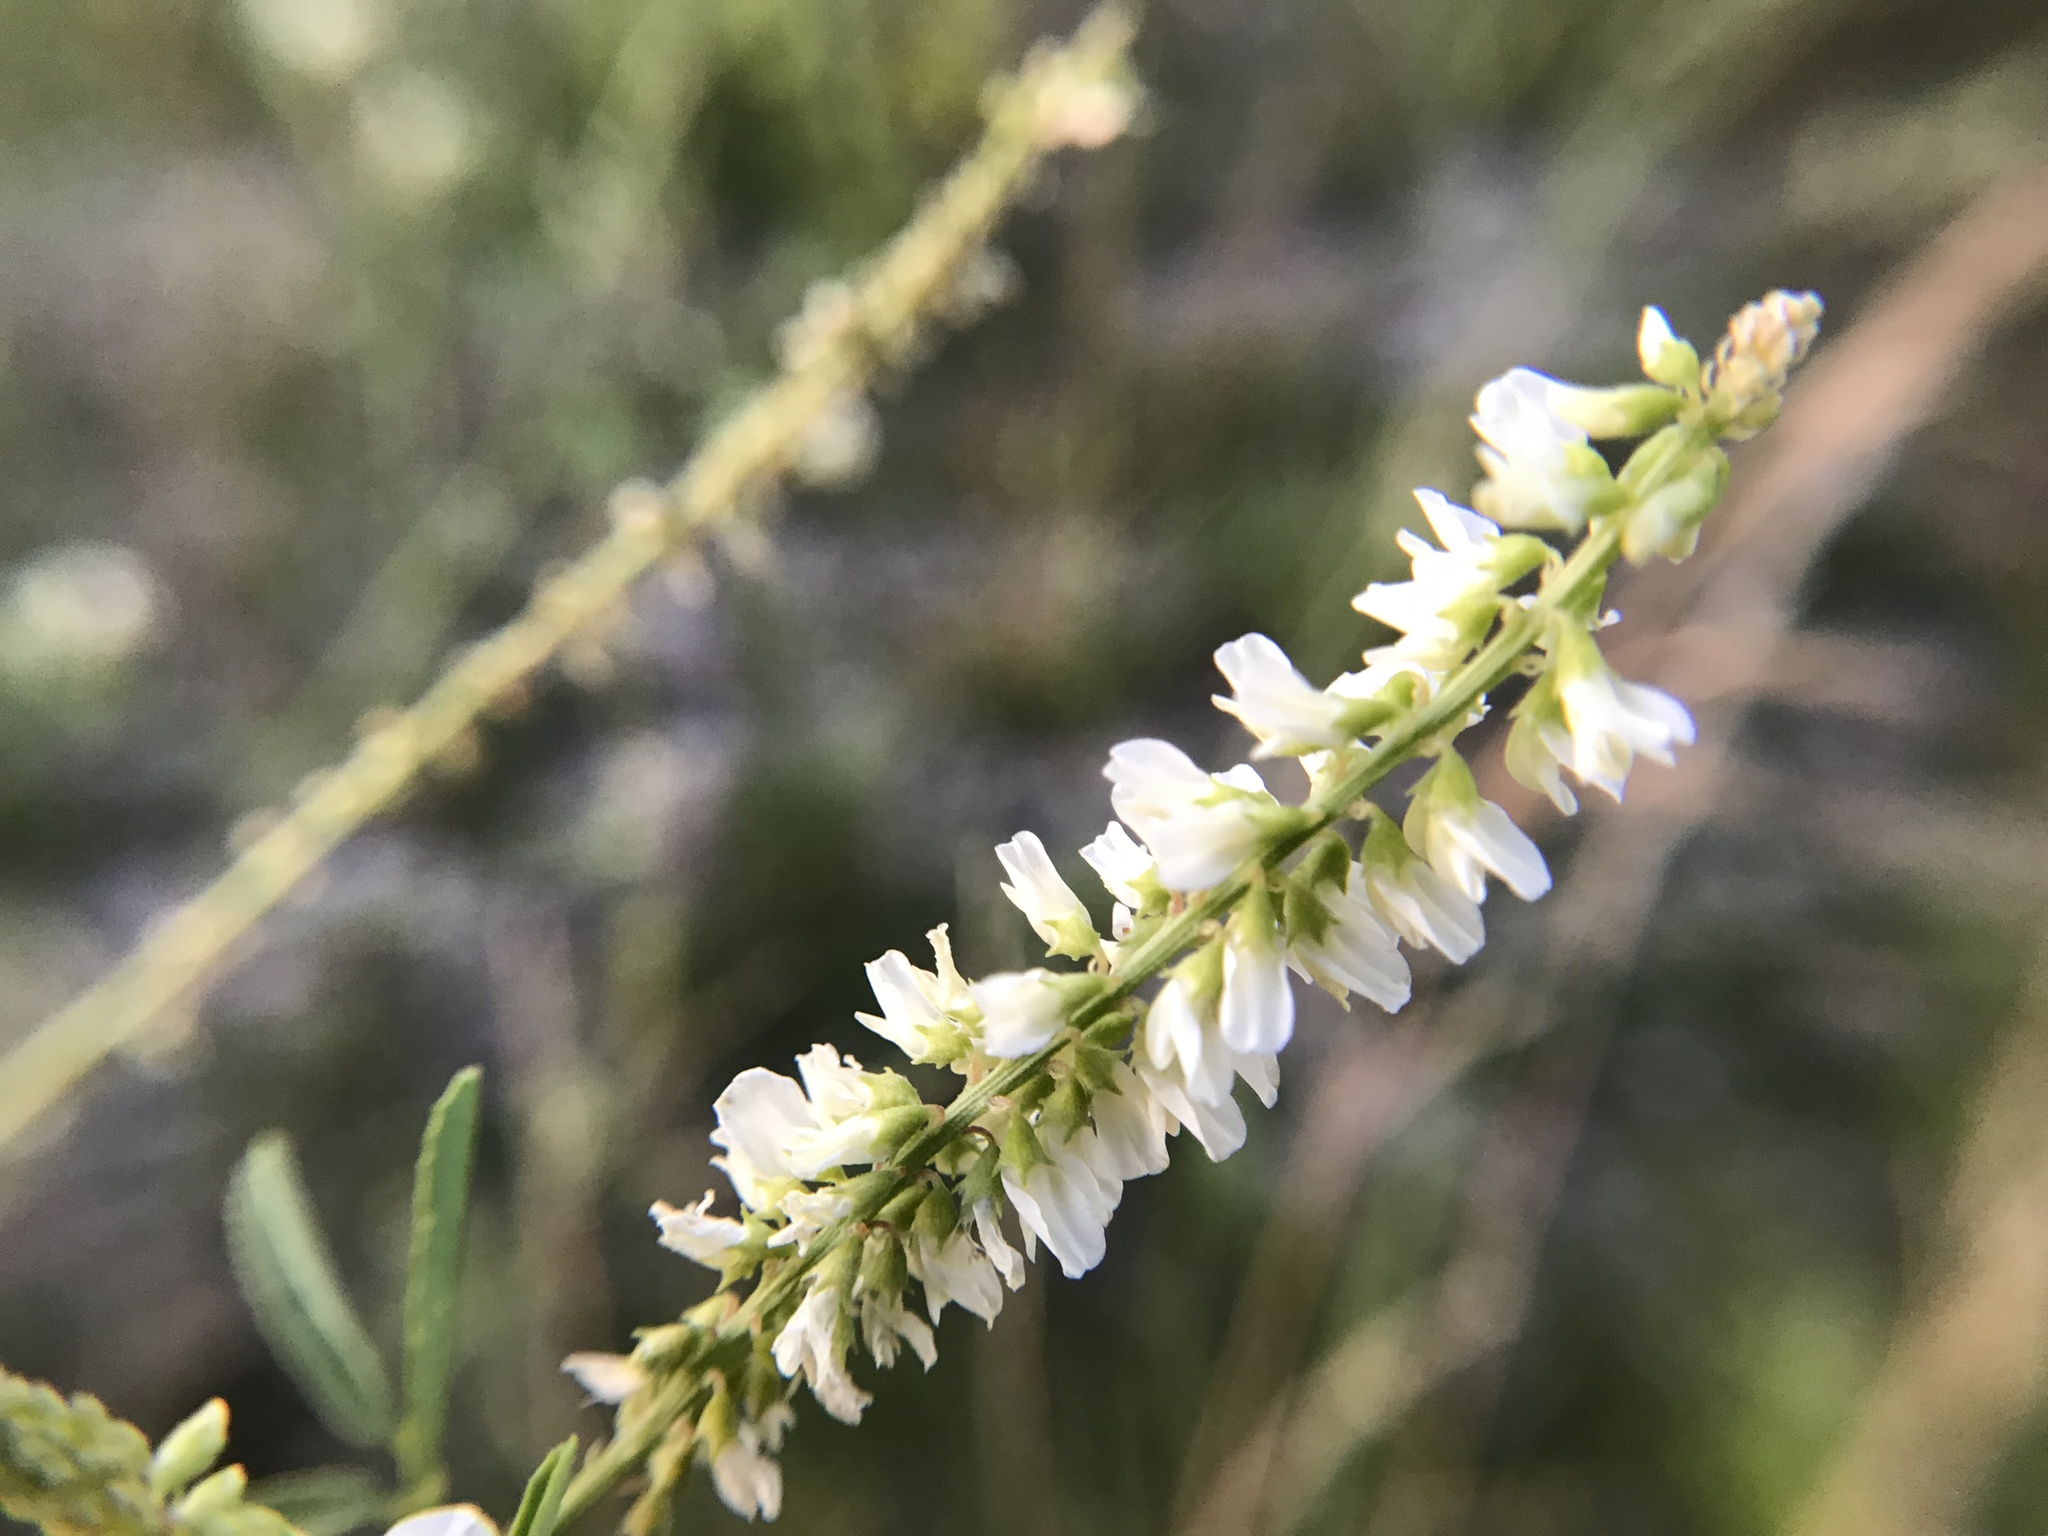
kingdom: Plantae
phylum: Tracheophyta
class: Magnoliopsida
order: Fabales
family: Fabaceae
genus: Melilotus
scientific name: Melilotus albus
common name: White melilot
